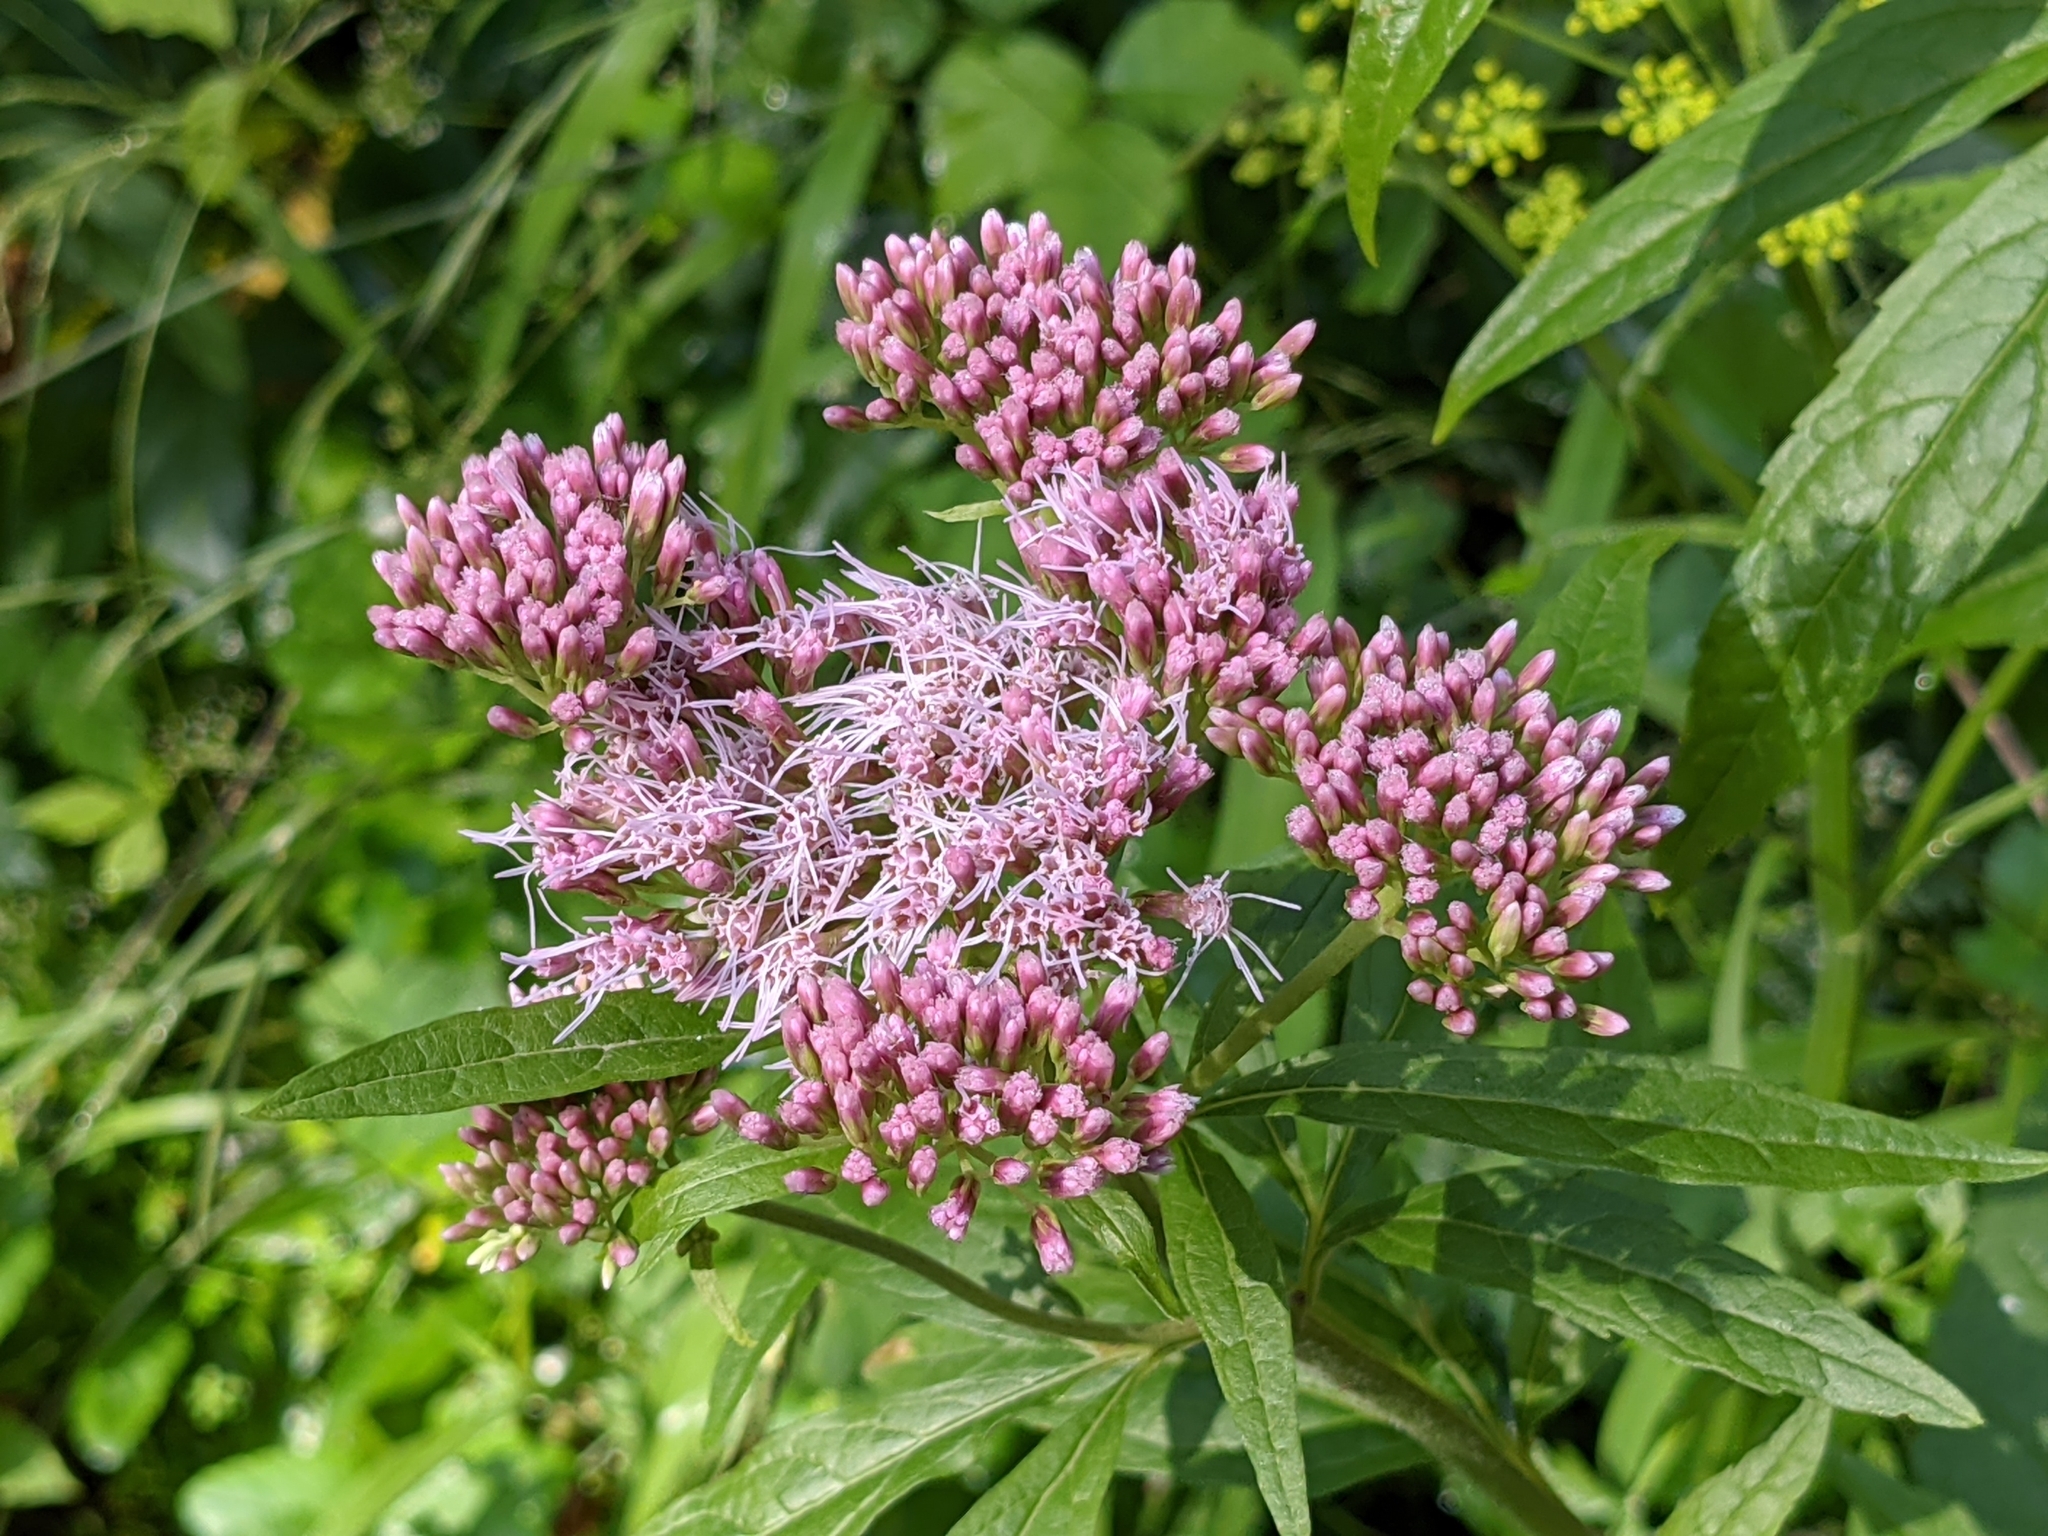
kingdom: Plantae
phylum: Tracheophyta
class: Magnoliopsida
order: Asterales
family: Asteraceae
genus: Eupatorium
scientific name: Eupatorium cannabinum
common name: Hemp-agrimony
